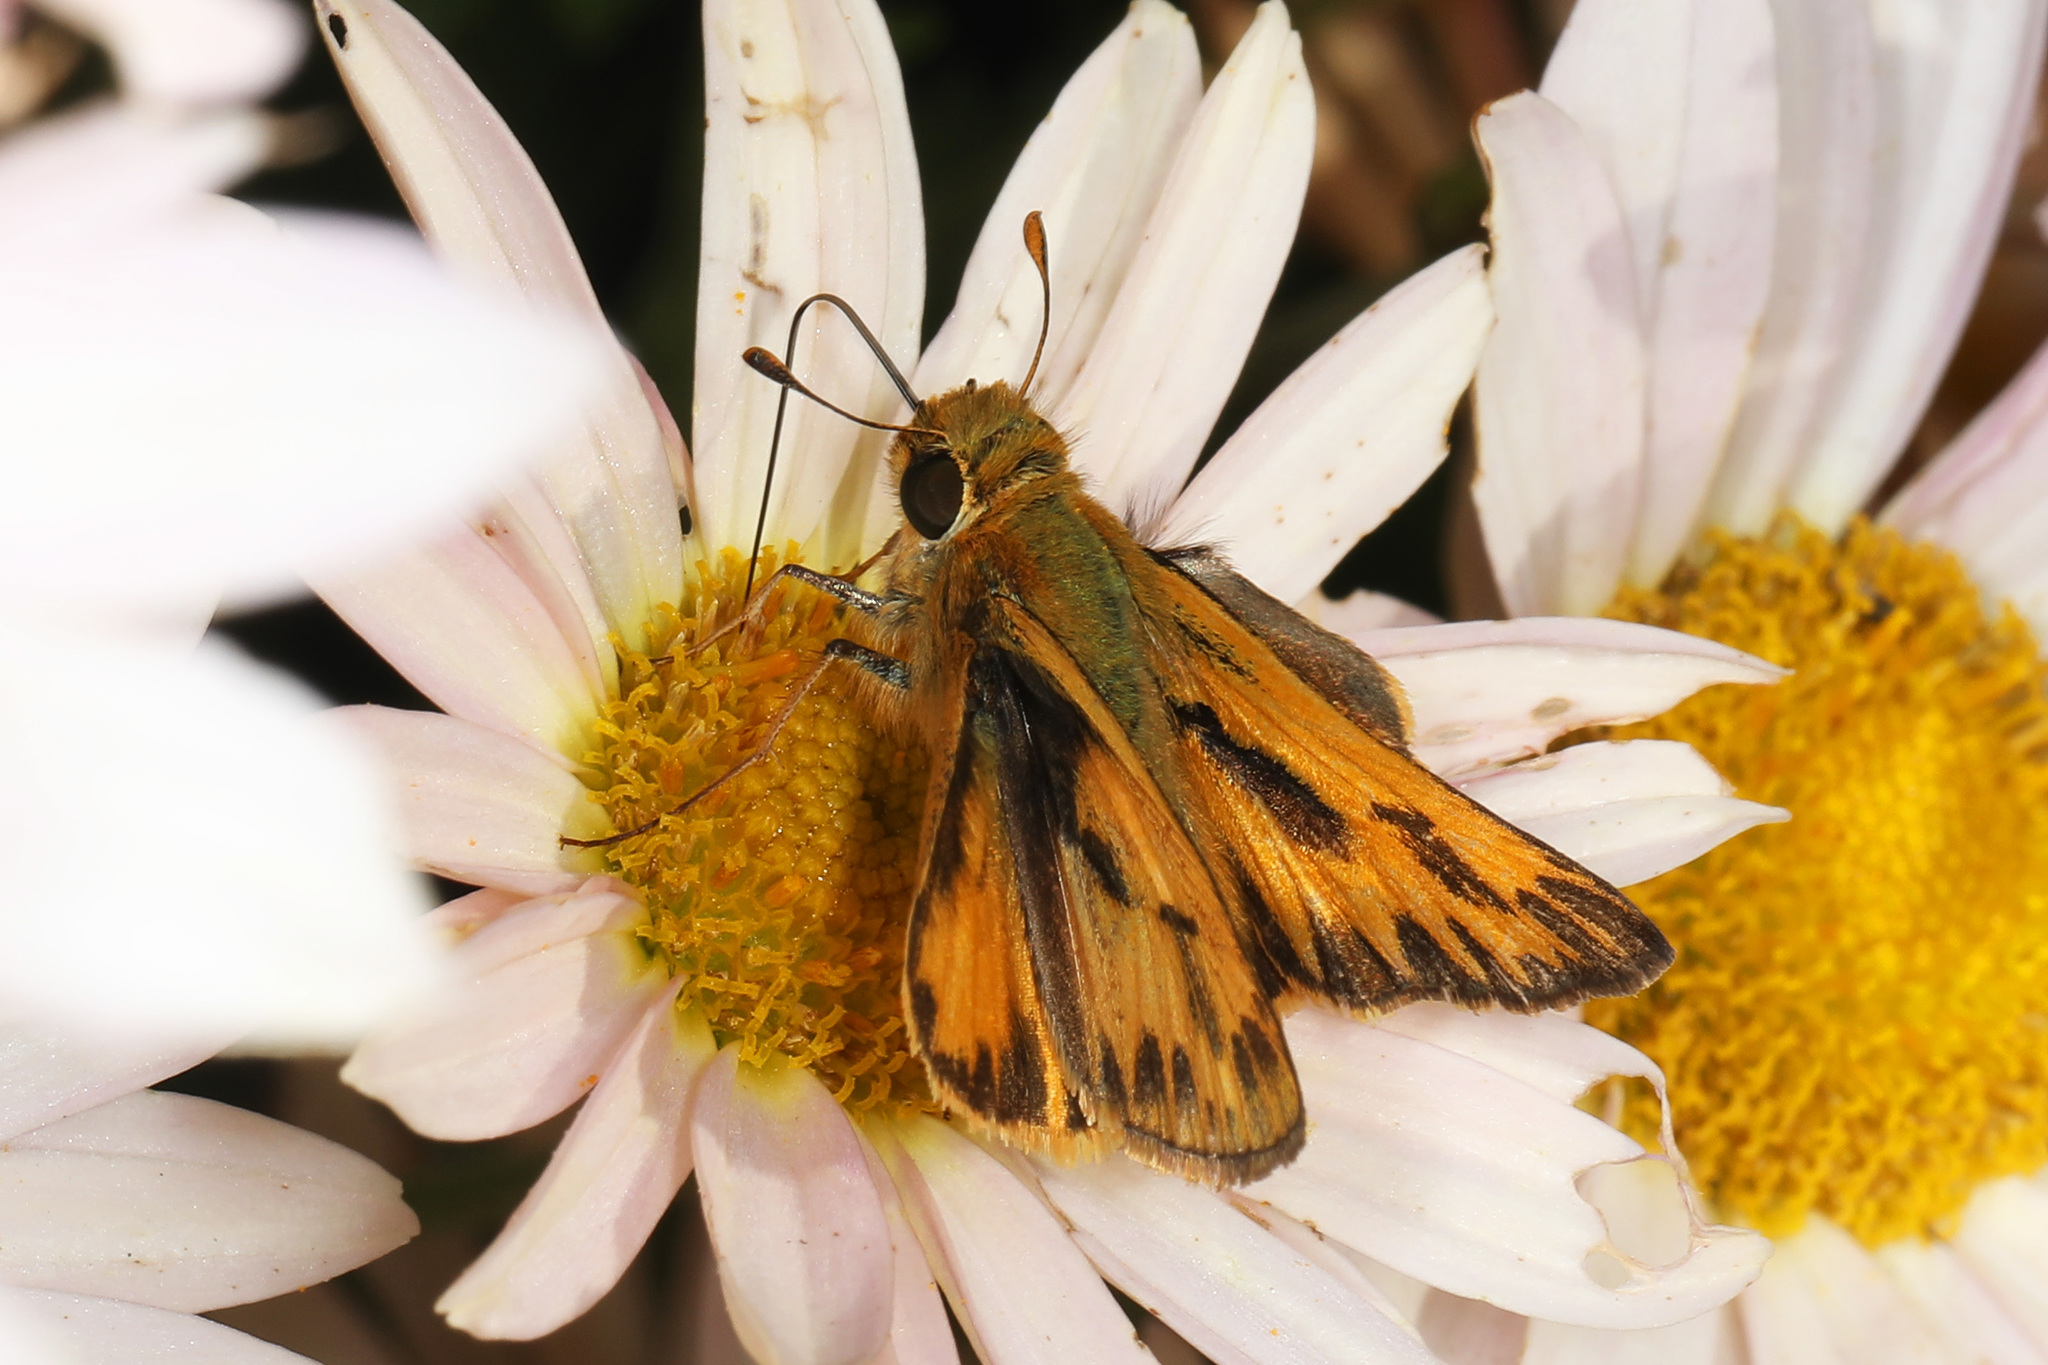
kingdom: Animalia
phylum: Arthropoda
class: Insecta
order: Lepidoptera
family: Hesperiidae
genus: Hylephila
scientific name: Hylephila phyleus
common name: Fiery skipper
